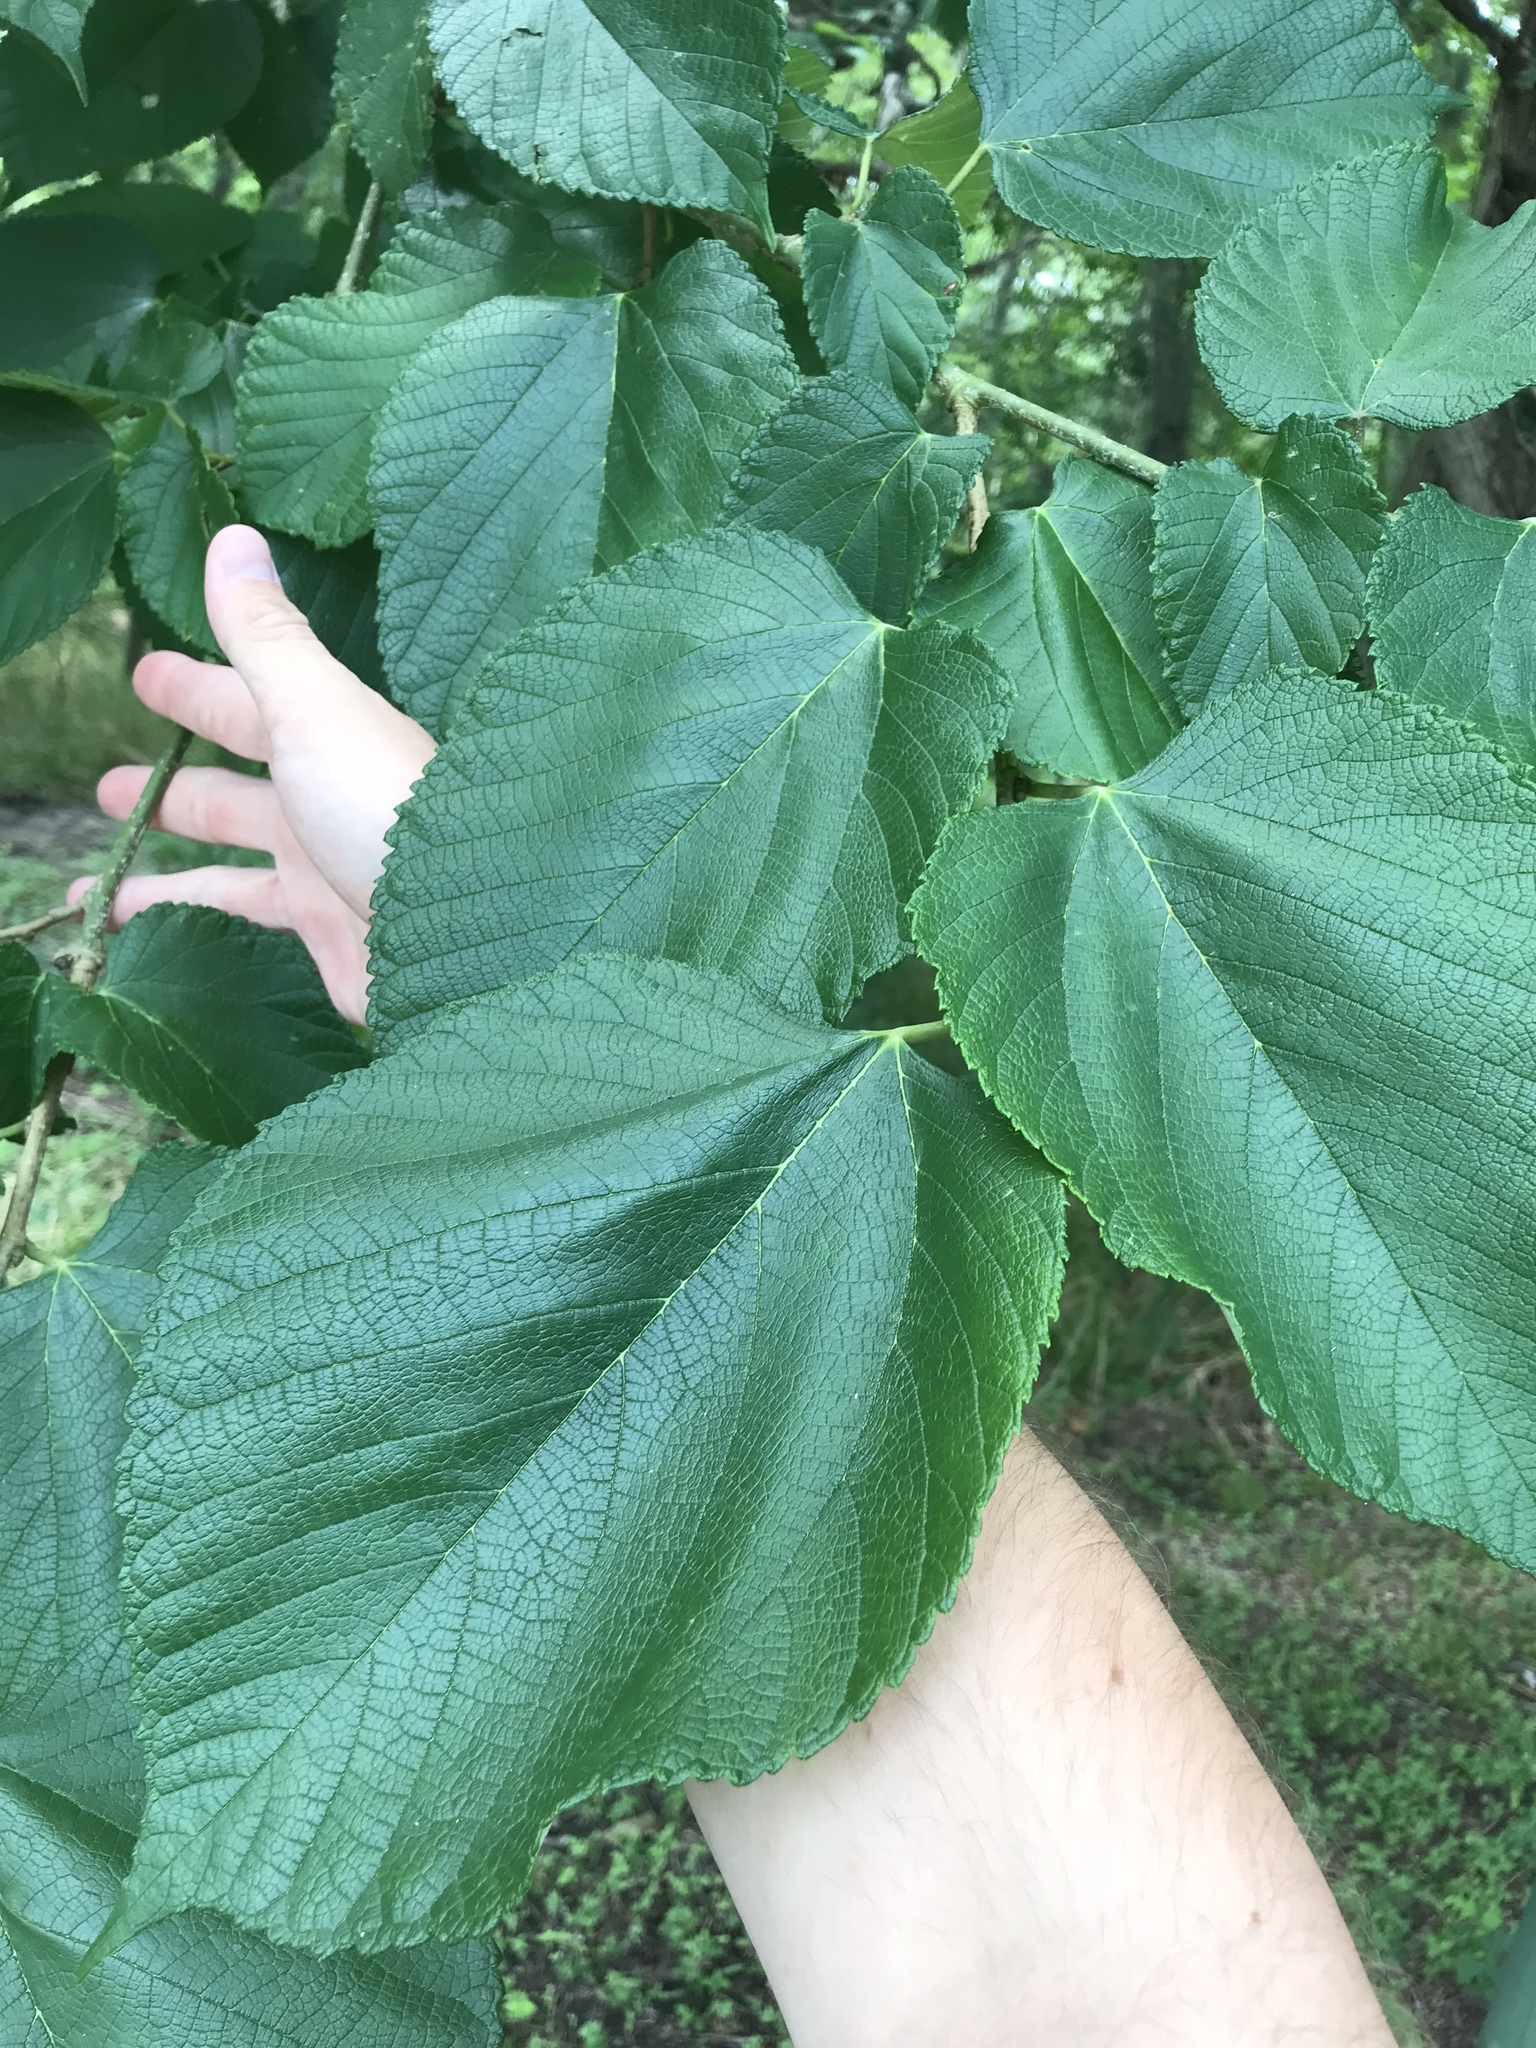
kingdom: Plantae
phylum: Tracheophyta
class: Magnoliopsida
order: Rosales
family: Moraceae
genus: Morus
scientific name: Morus rubra
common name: Red mulberry
